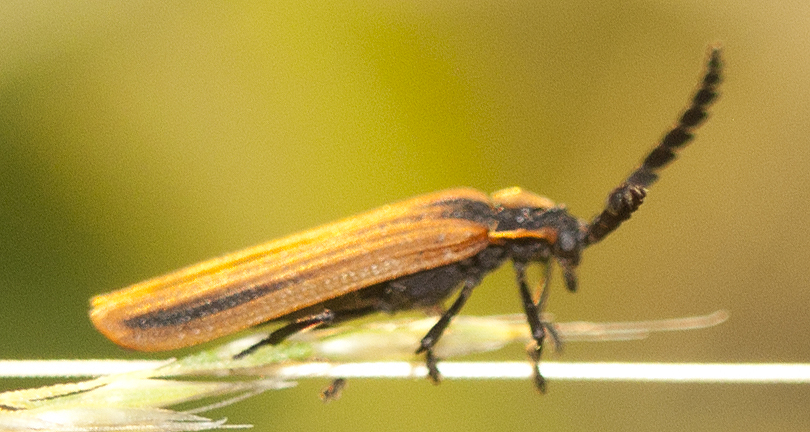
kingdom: Animalia
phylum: Arthropoda
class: Insecta
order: Coleoptera
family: Lycidae
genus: Trichalus
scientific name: Trichalus
